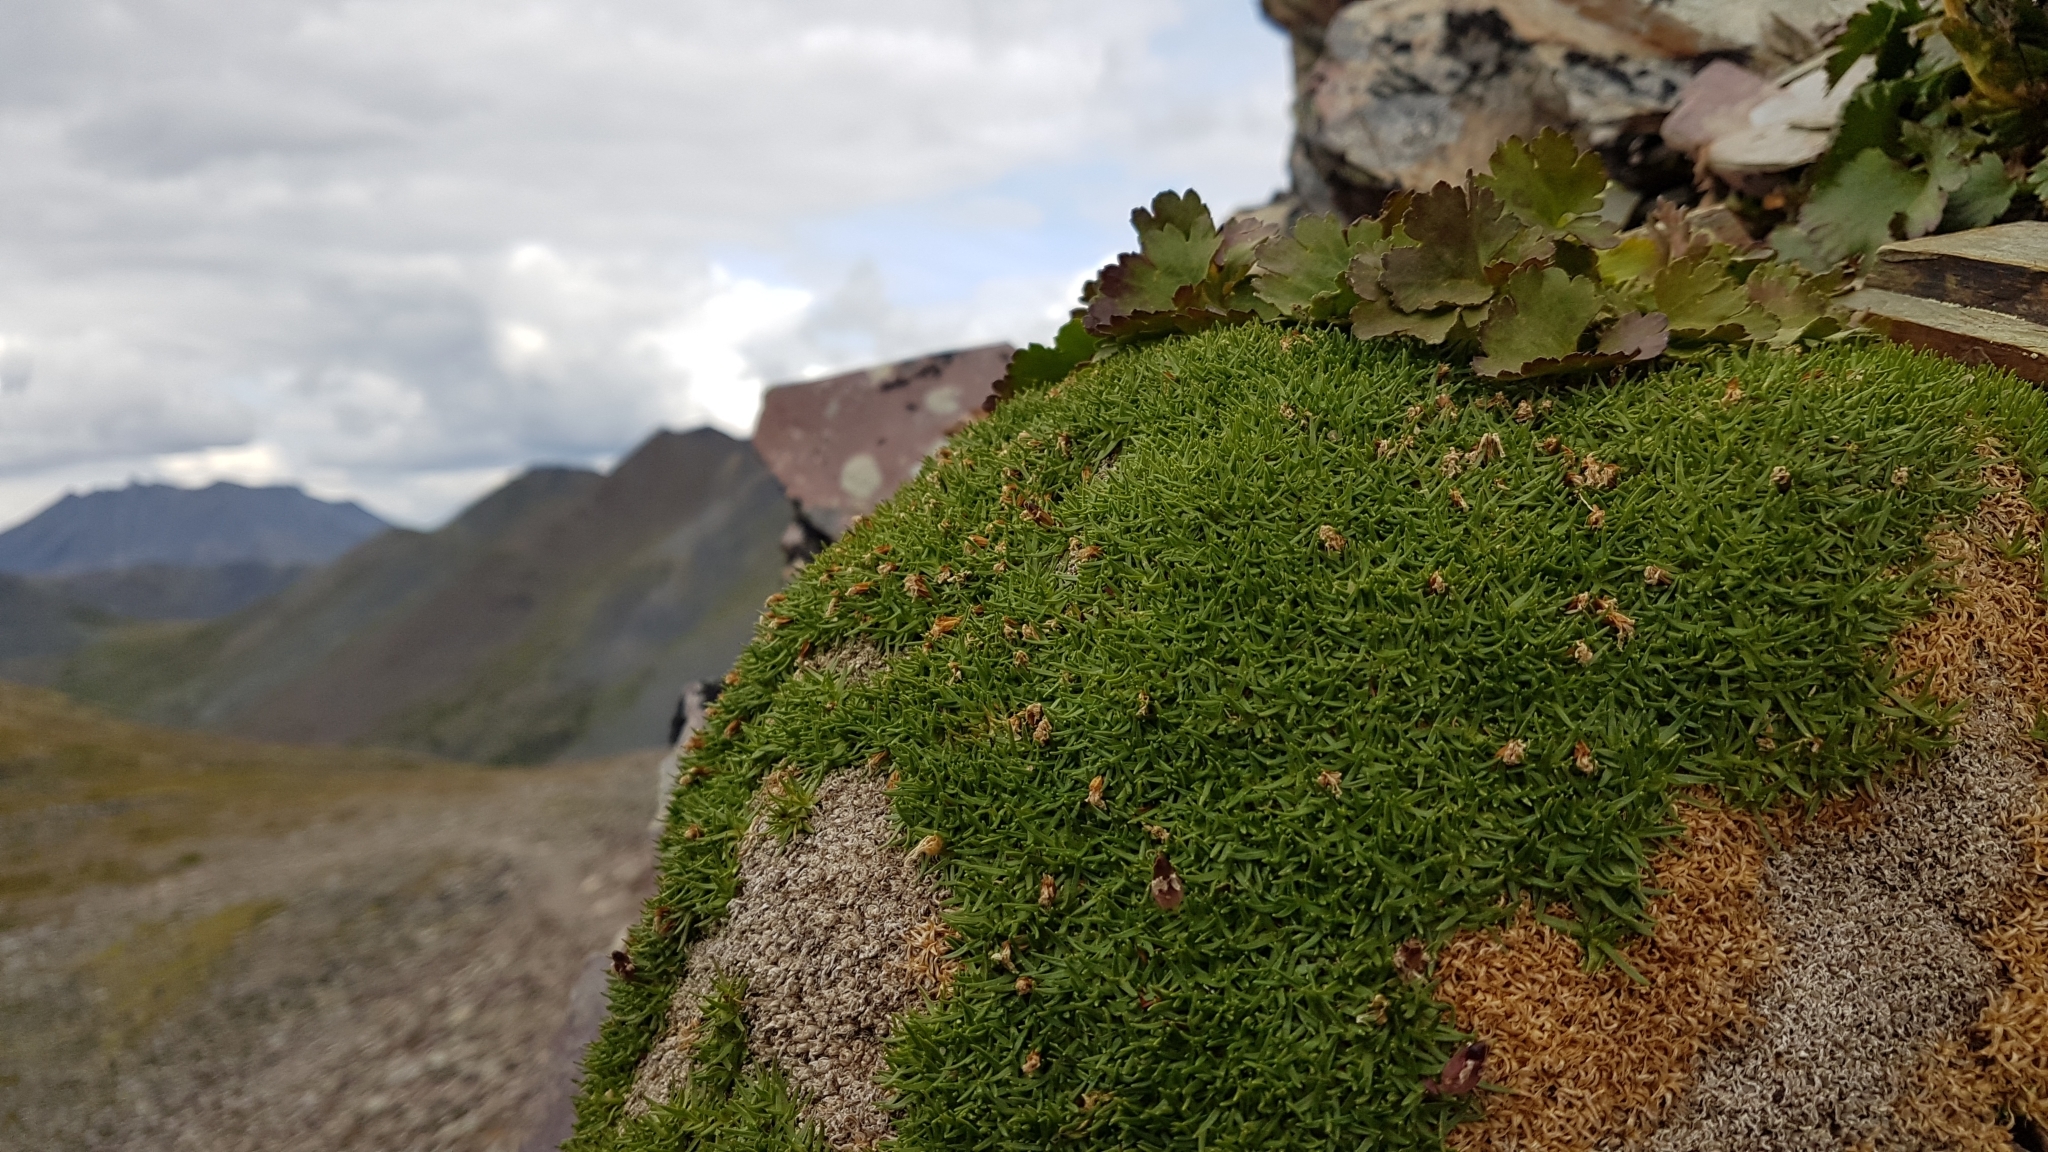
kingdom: Plantae
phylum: Tracheophyta
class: Magnoliopsida
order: Lamiales
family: Plantaginaceae
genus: Synthyris
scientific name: Synthyris borealis
